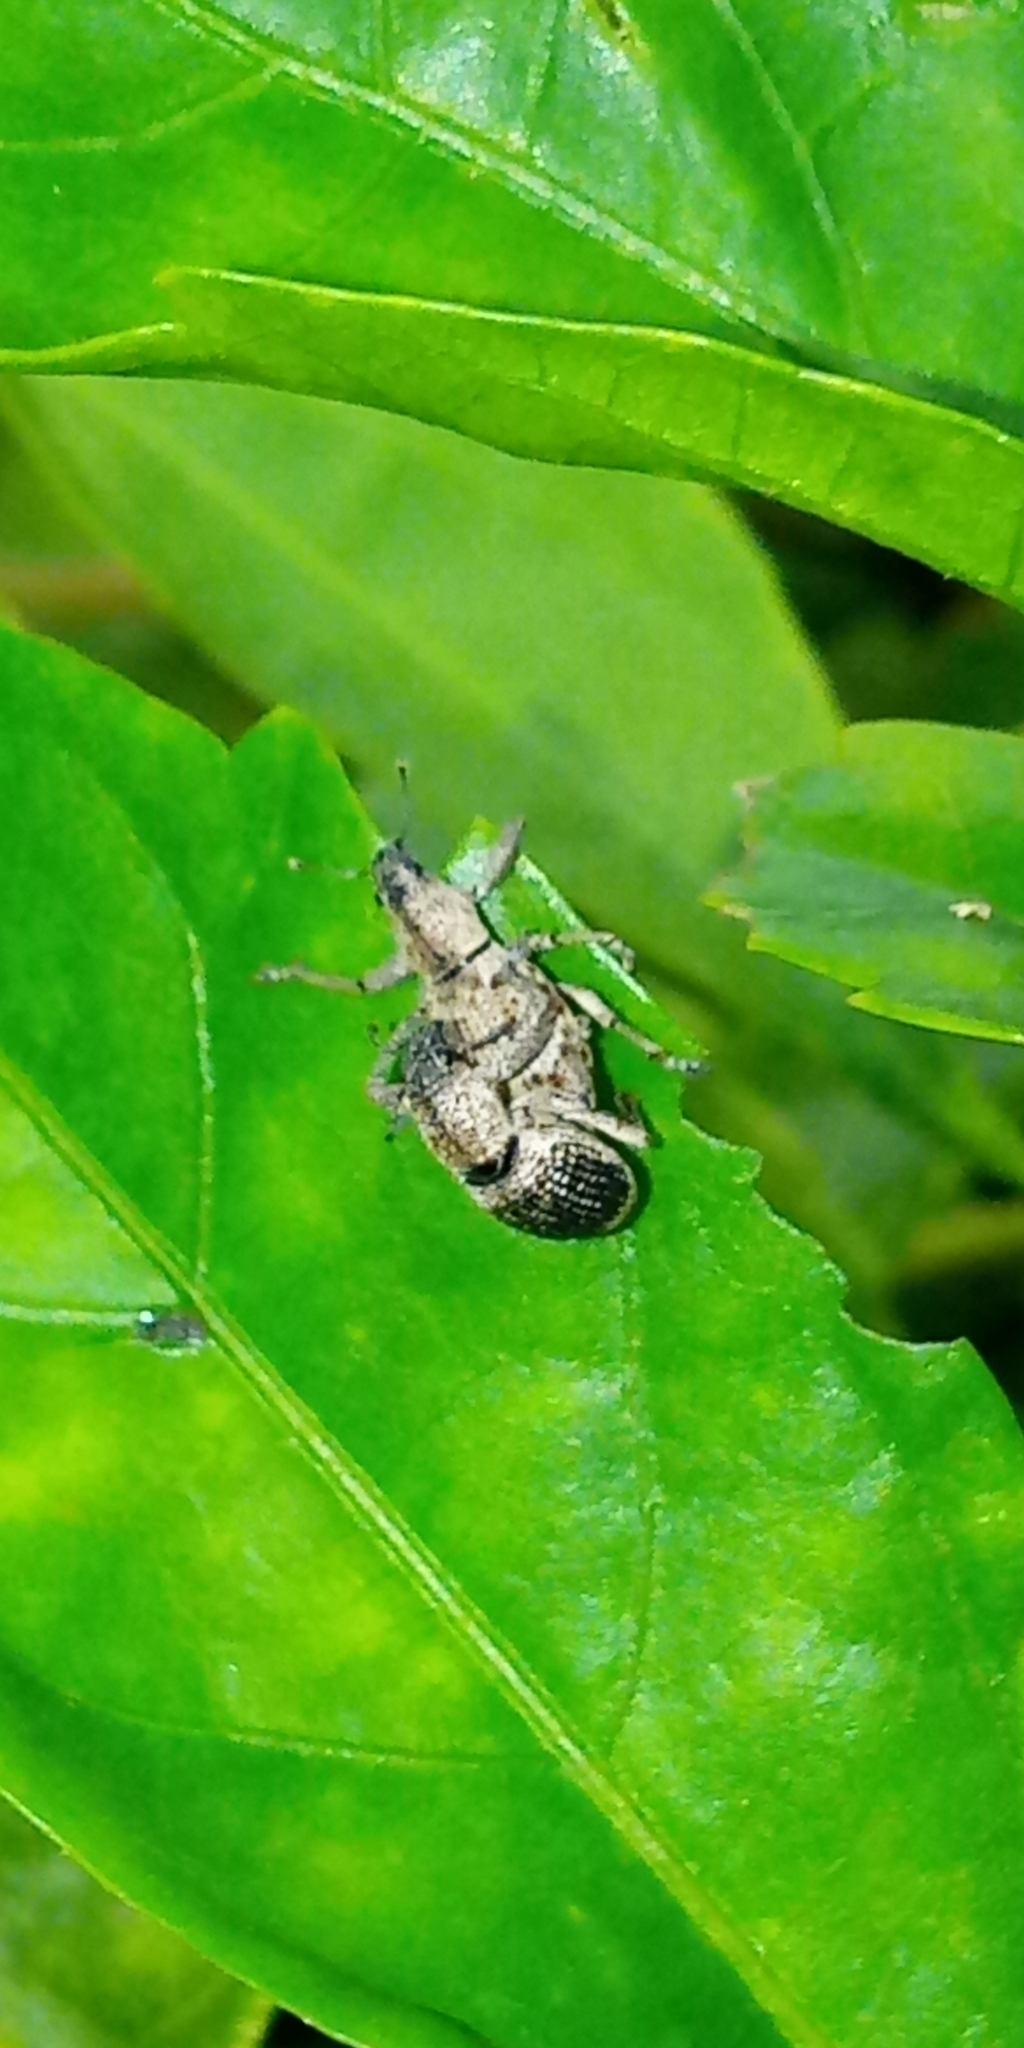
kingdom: Animalia
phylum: Arthropoda
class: Insecta
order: Coleoptera
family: Curculionidae
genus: Sympiezomias
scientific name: Sympiezomias cribricollis
